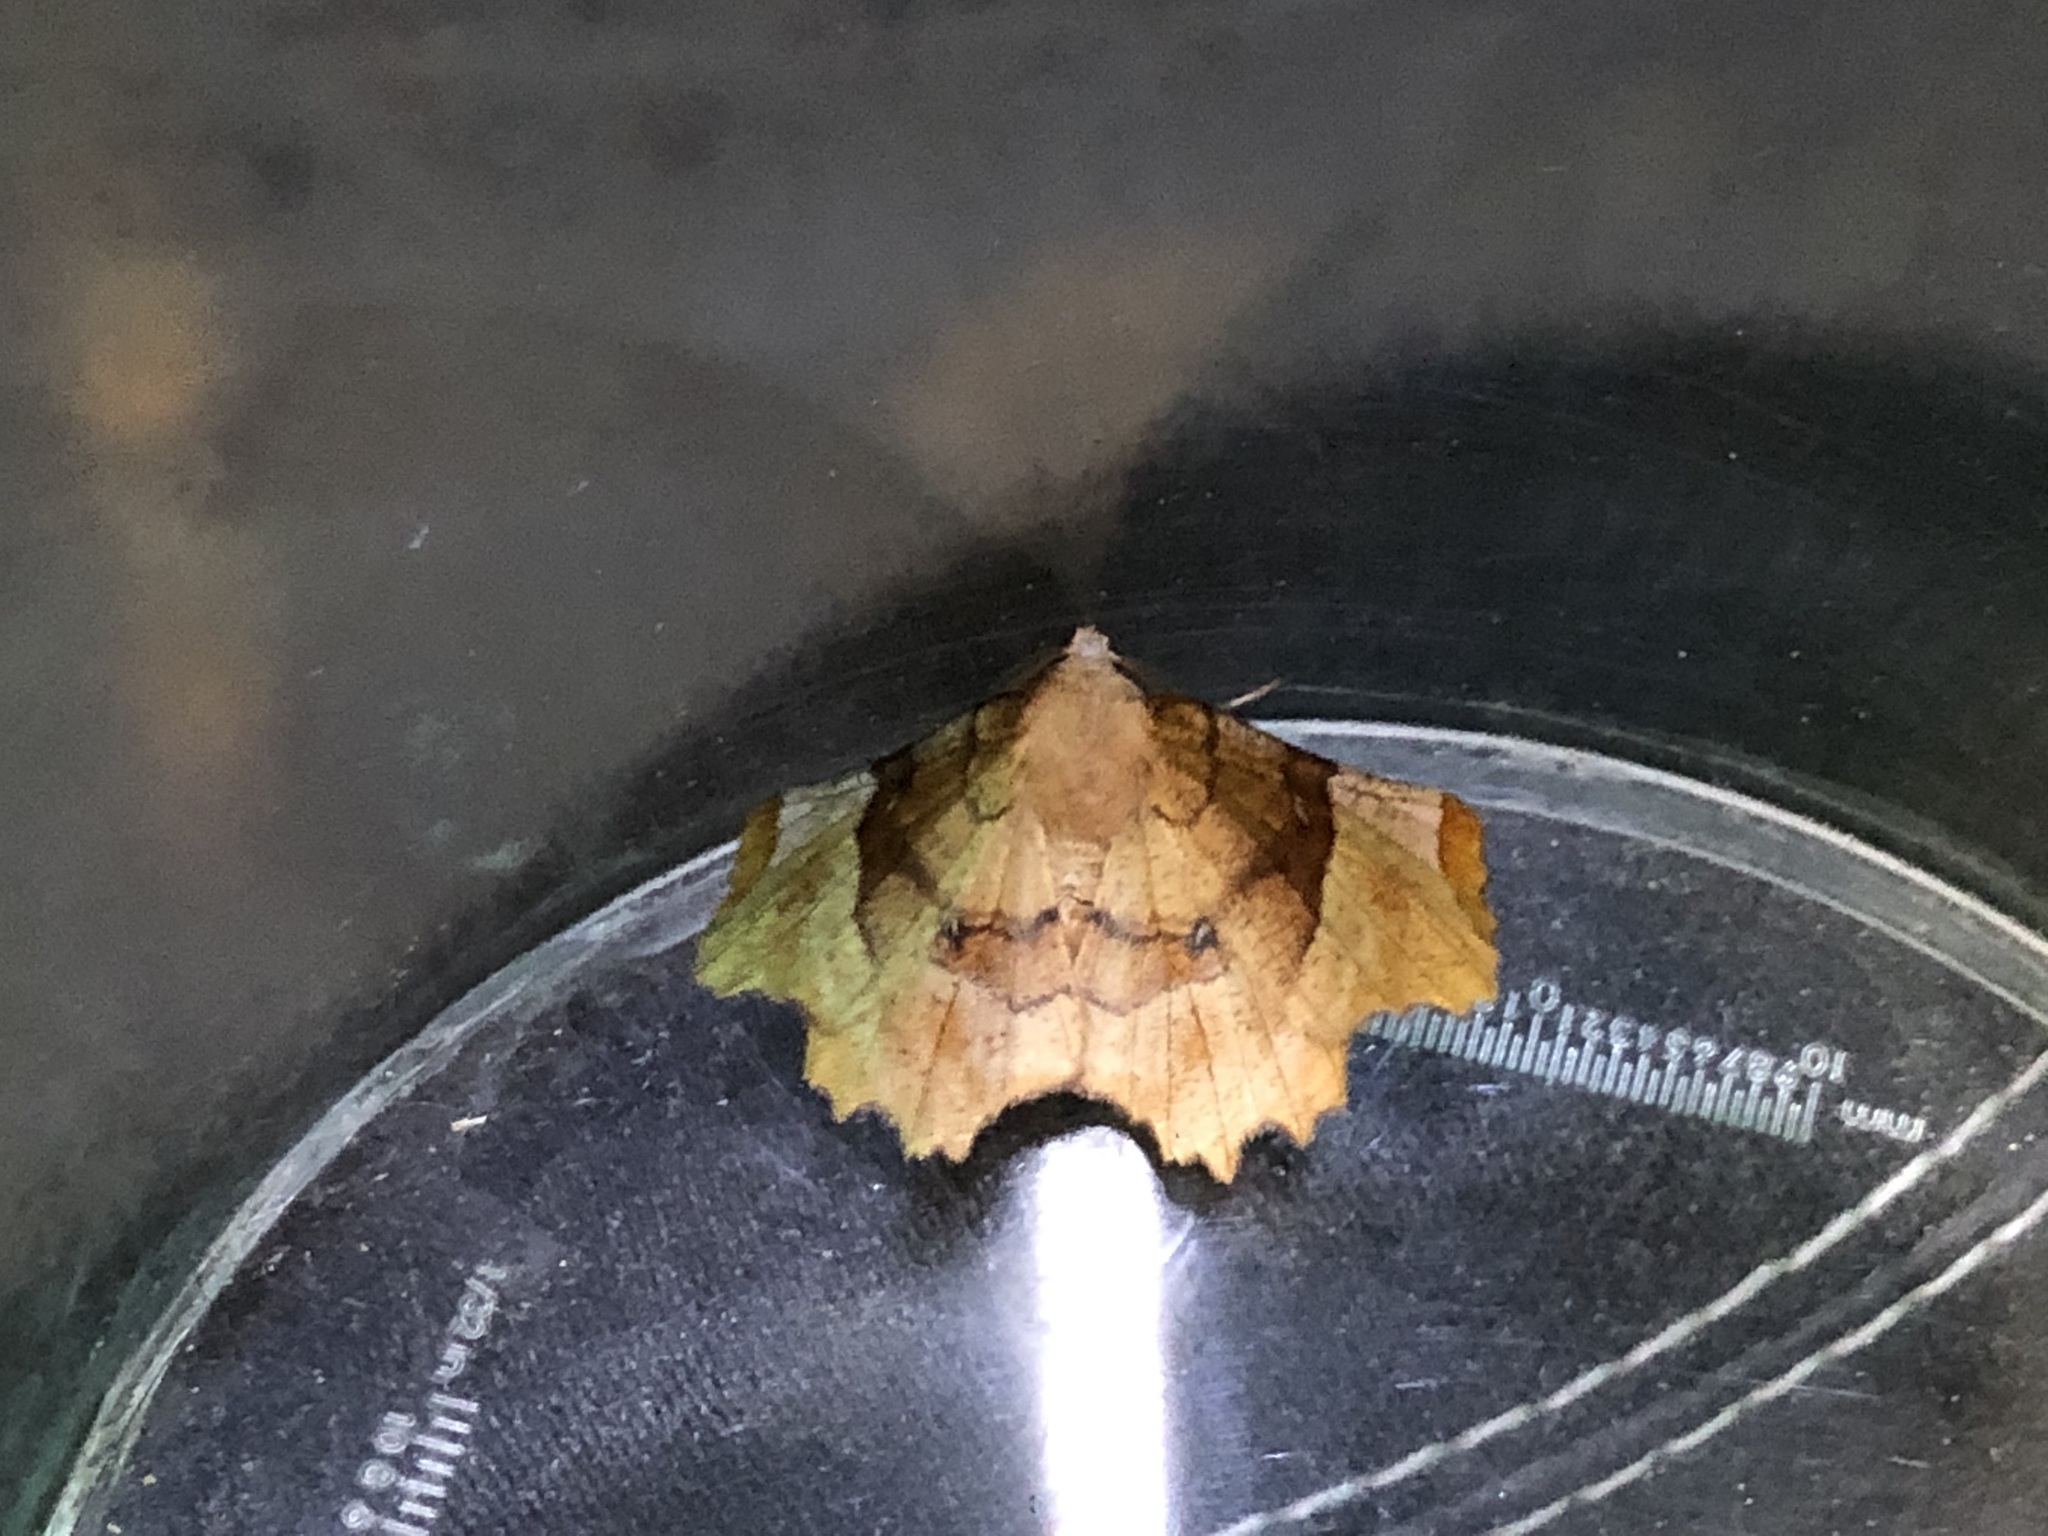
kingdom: Animalia
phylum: Arthropoda
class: Insecta
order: Lepidoptera
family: Geometridae
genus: Selenia
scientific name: Selenia lunularia
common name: Lunar thorn
